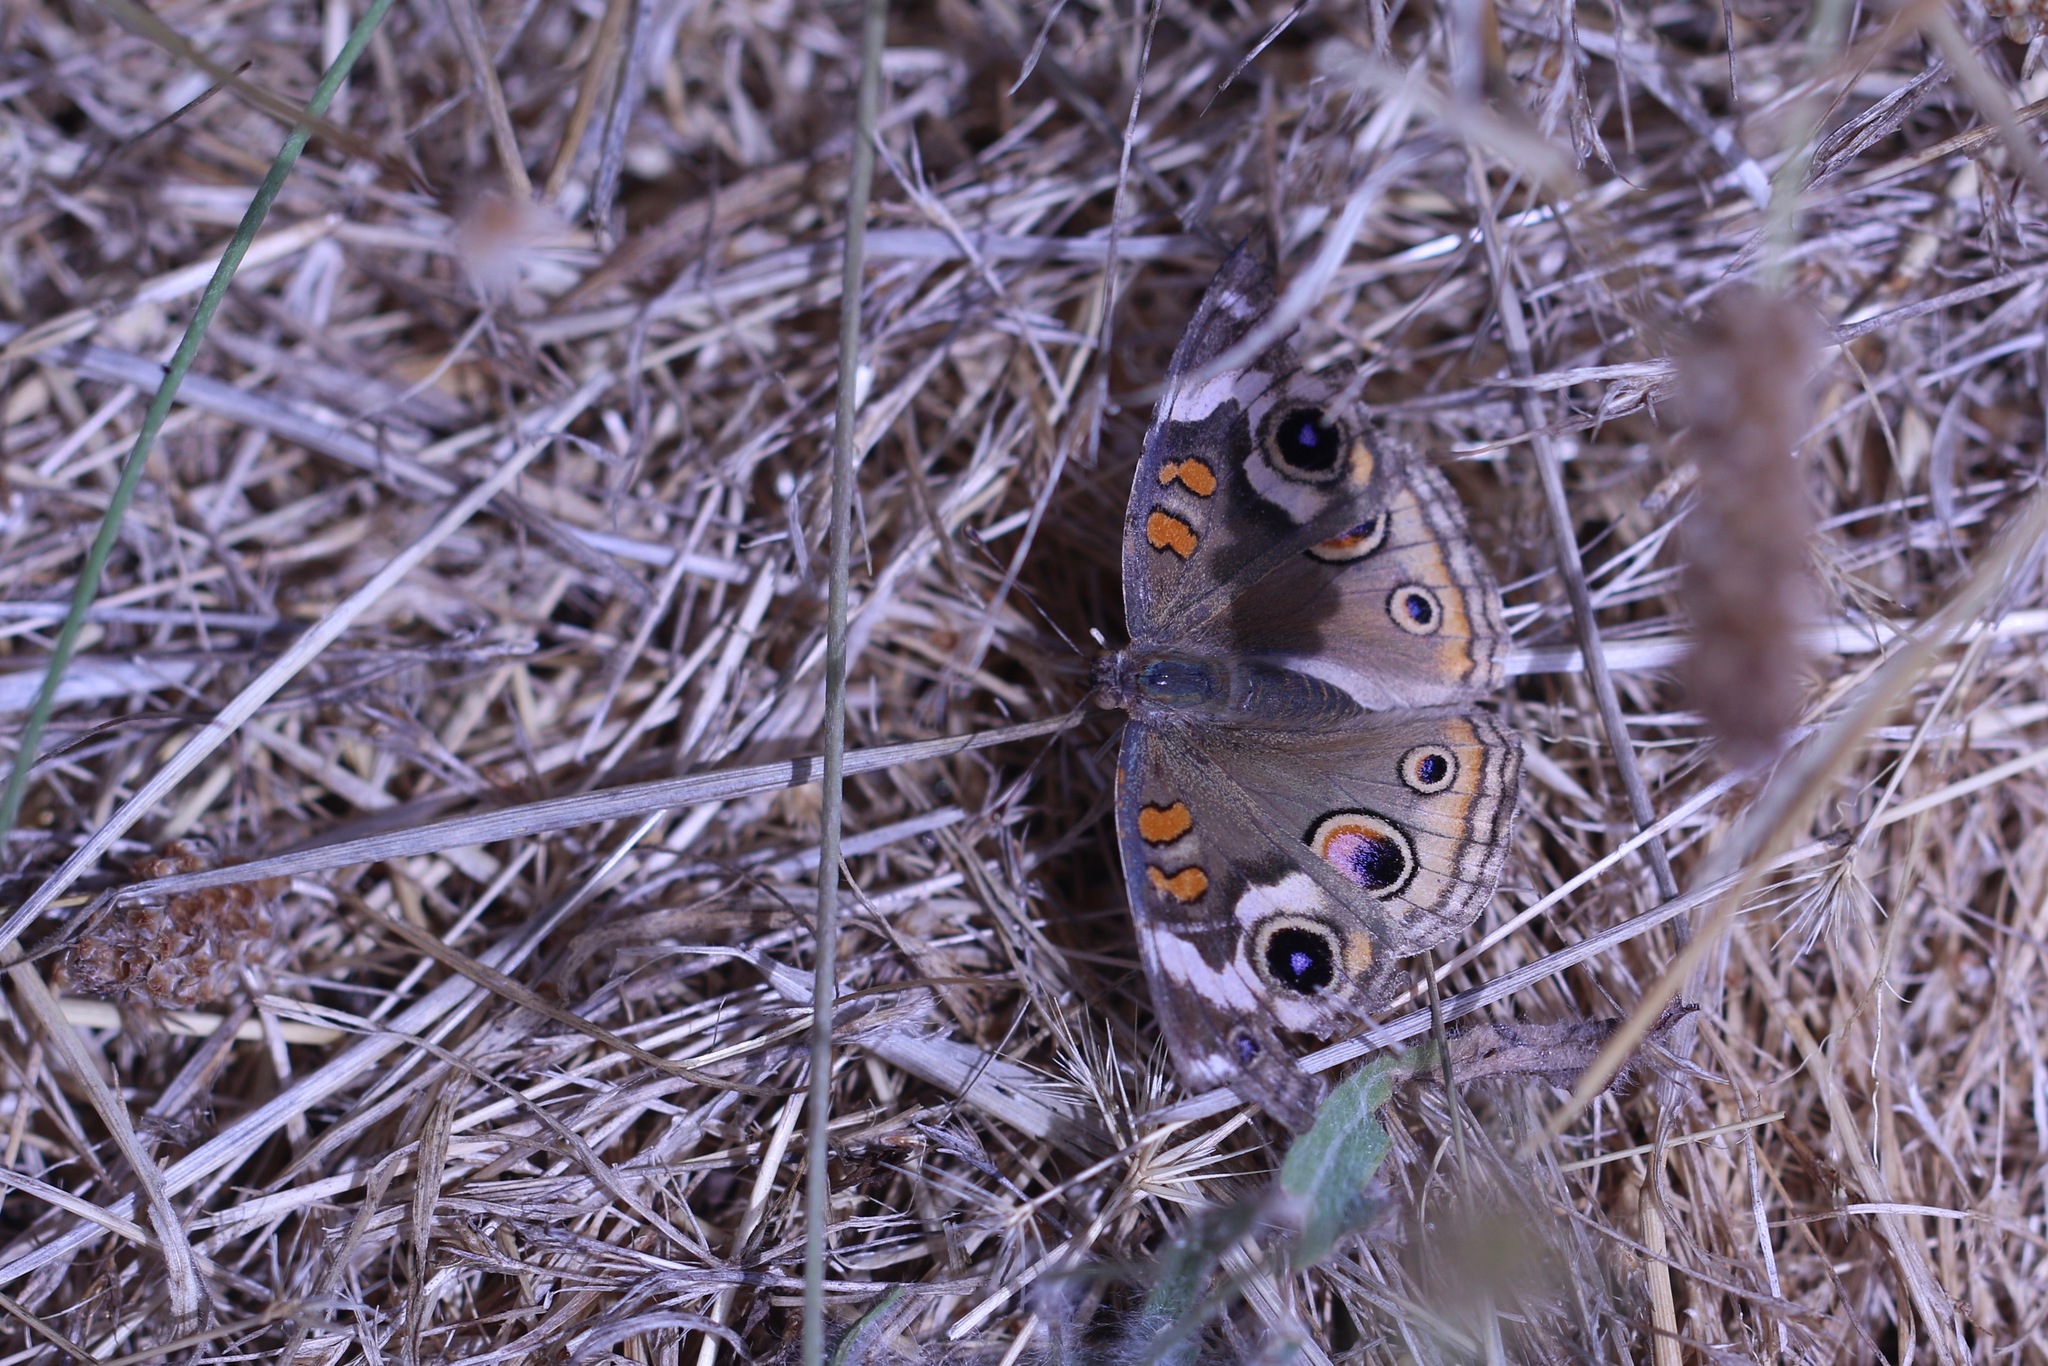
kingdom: Animalia
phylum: Arthropoda
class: Insecta
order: Lepidoptera
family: Nymphalidae
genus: Junonia
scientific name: Junonia grisea
